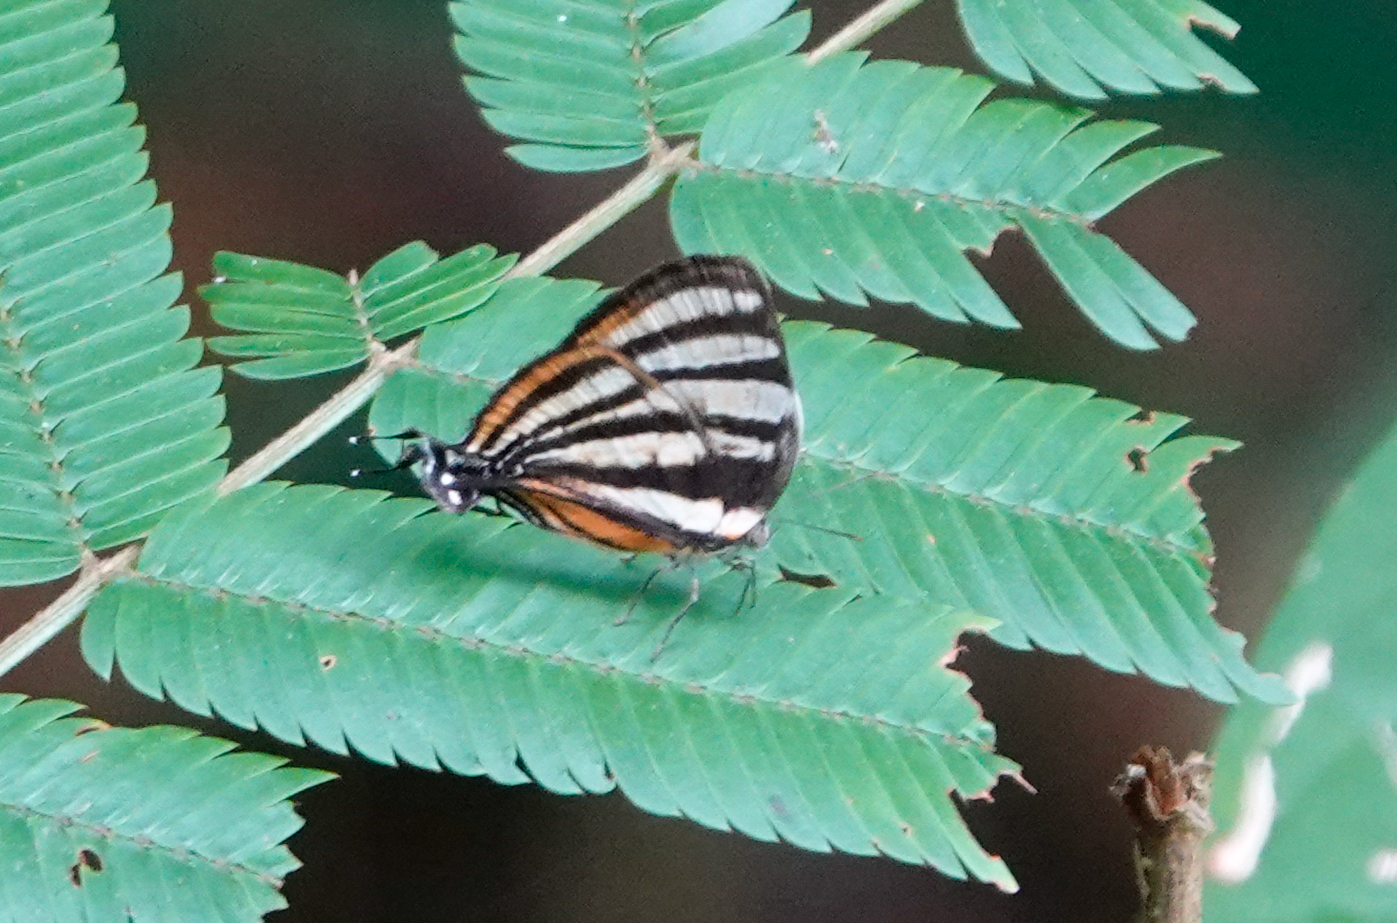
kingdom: Animalia
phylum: Arthropoda
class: Insecta
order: Lepidoptera
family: Lycaenidae
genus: Thecla
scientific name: Thecla aetolus
